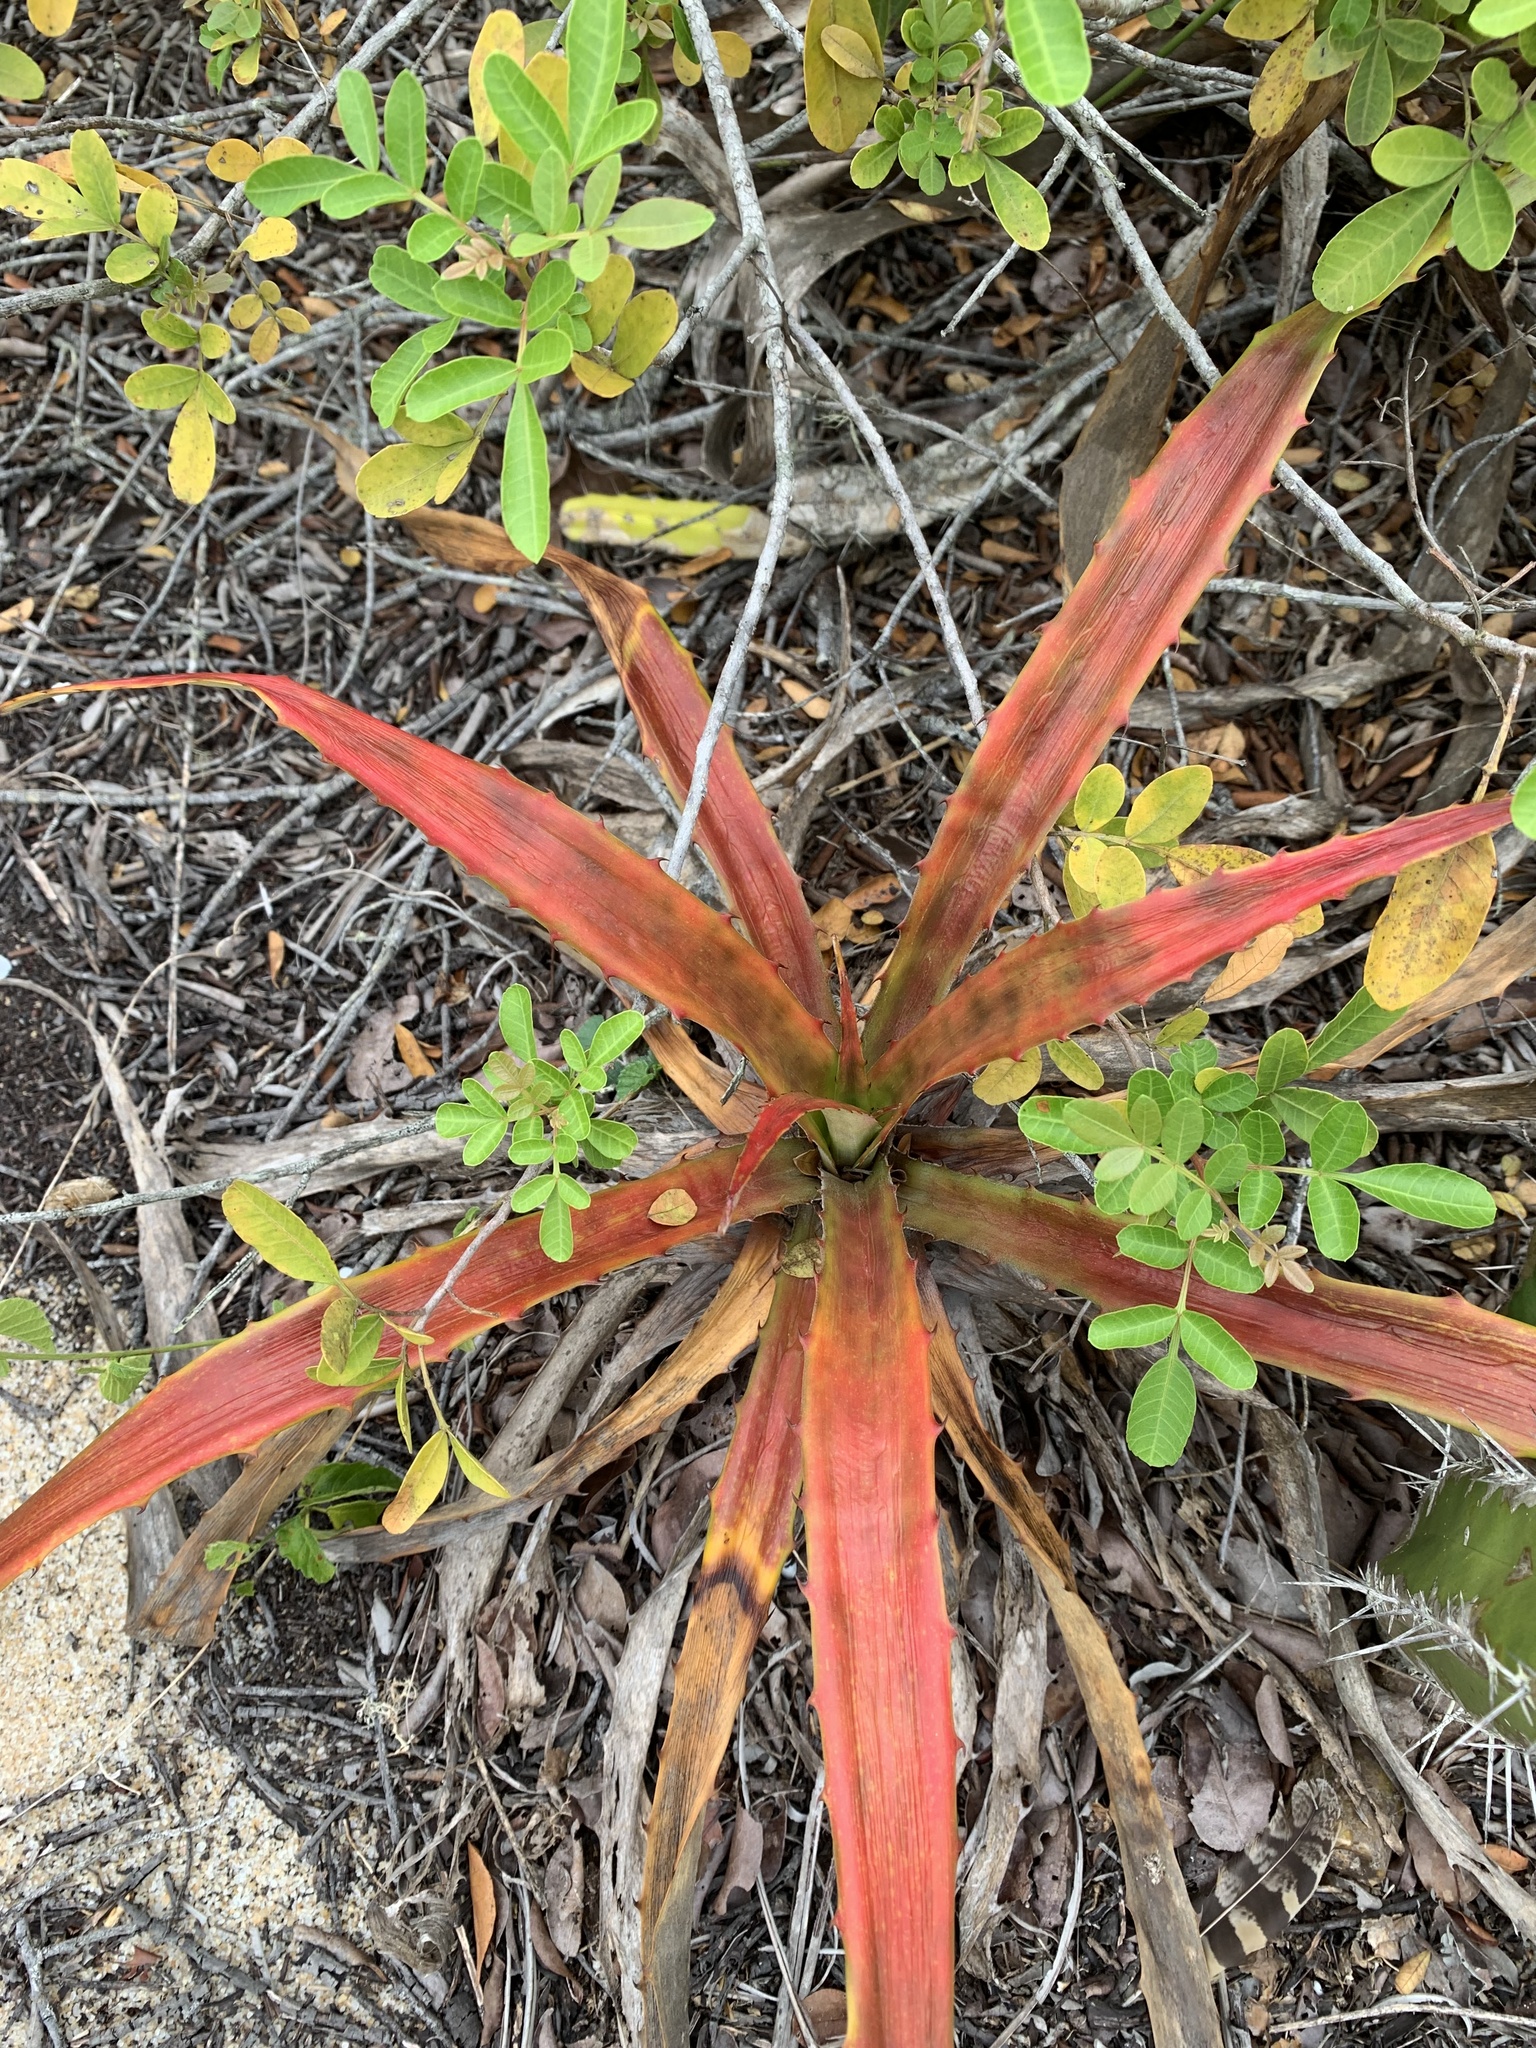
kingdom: Plantae
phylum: Tracheophyta
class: Liliopsida
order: Poales
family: Bromeliaceae
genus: Bromelia
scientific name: Bromelia antiacantha
